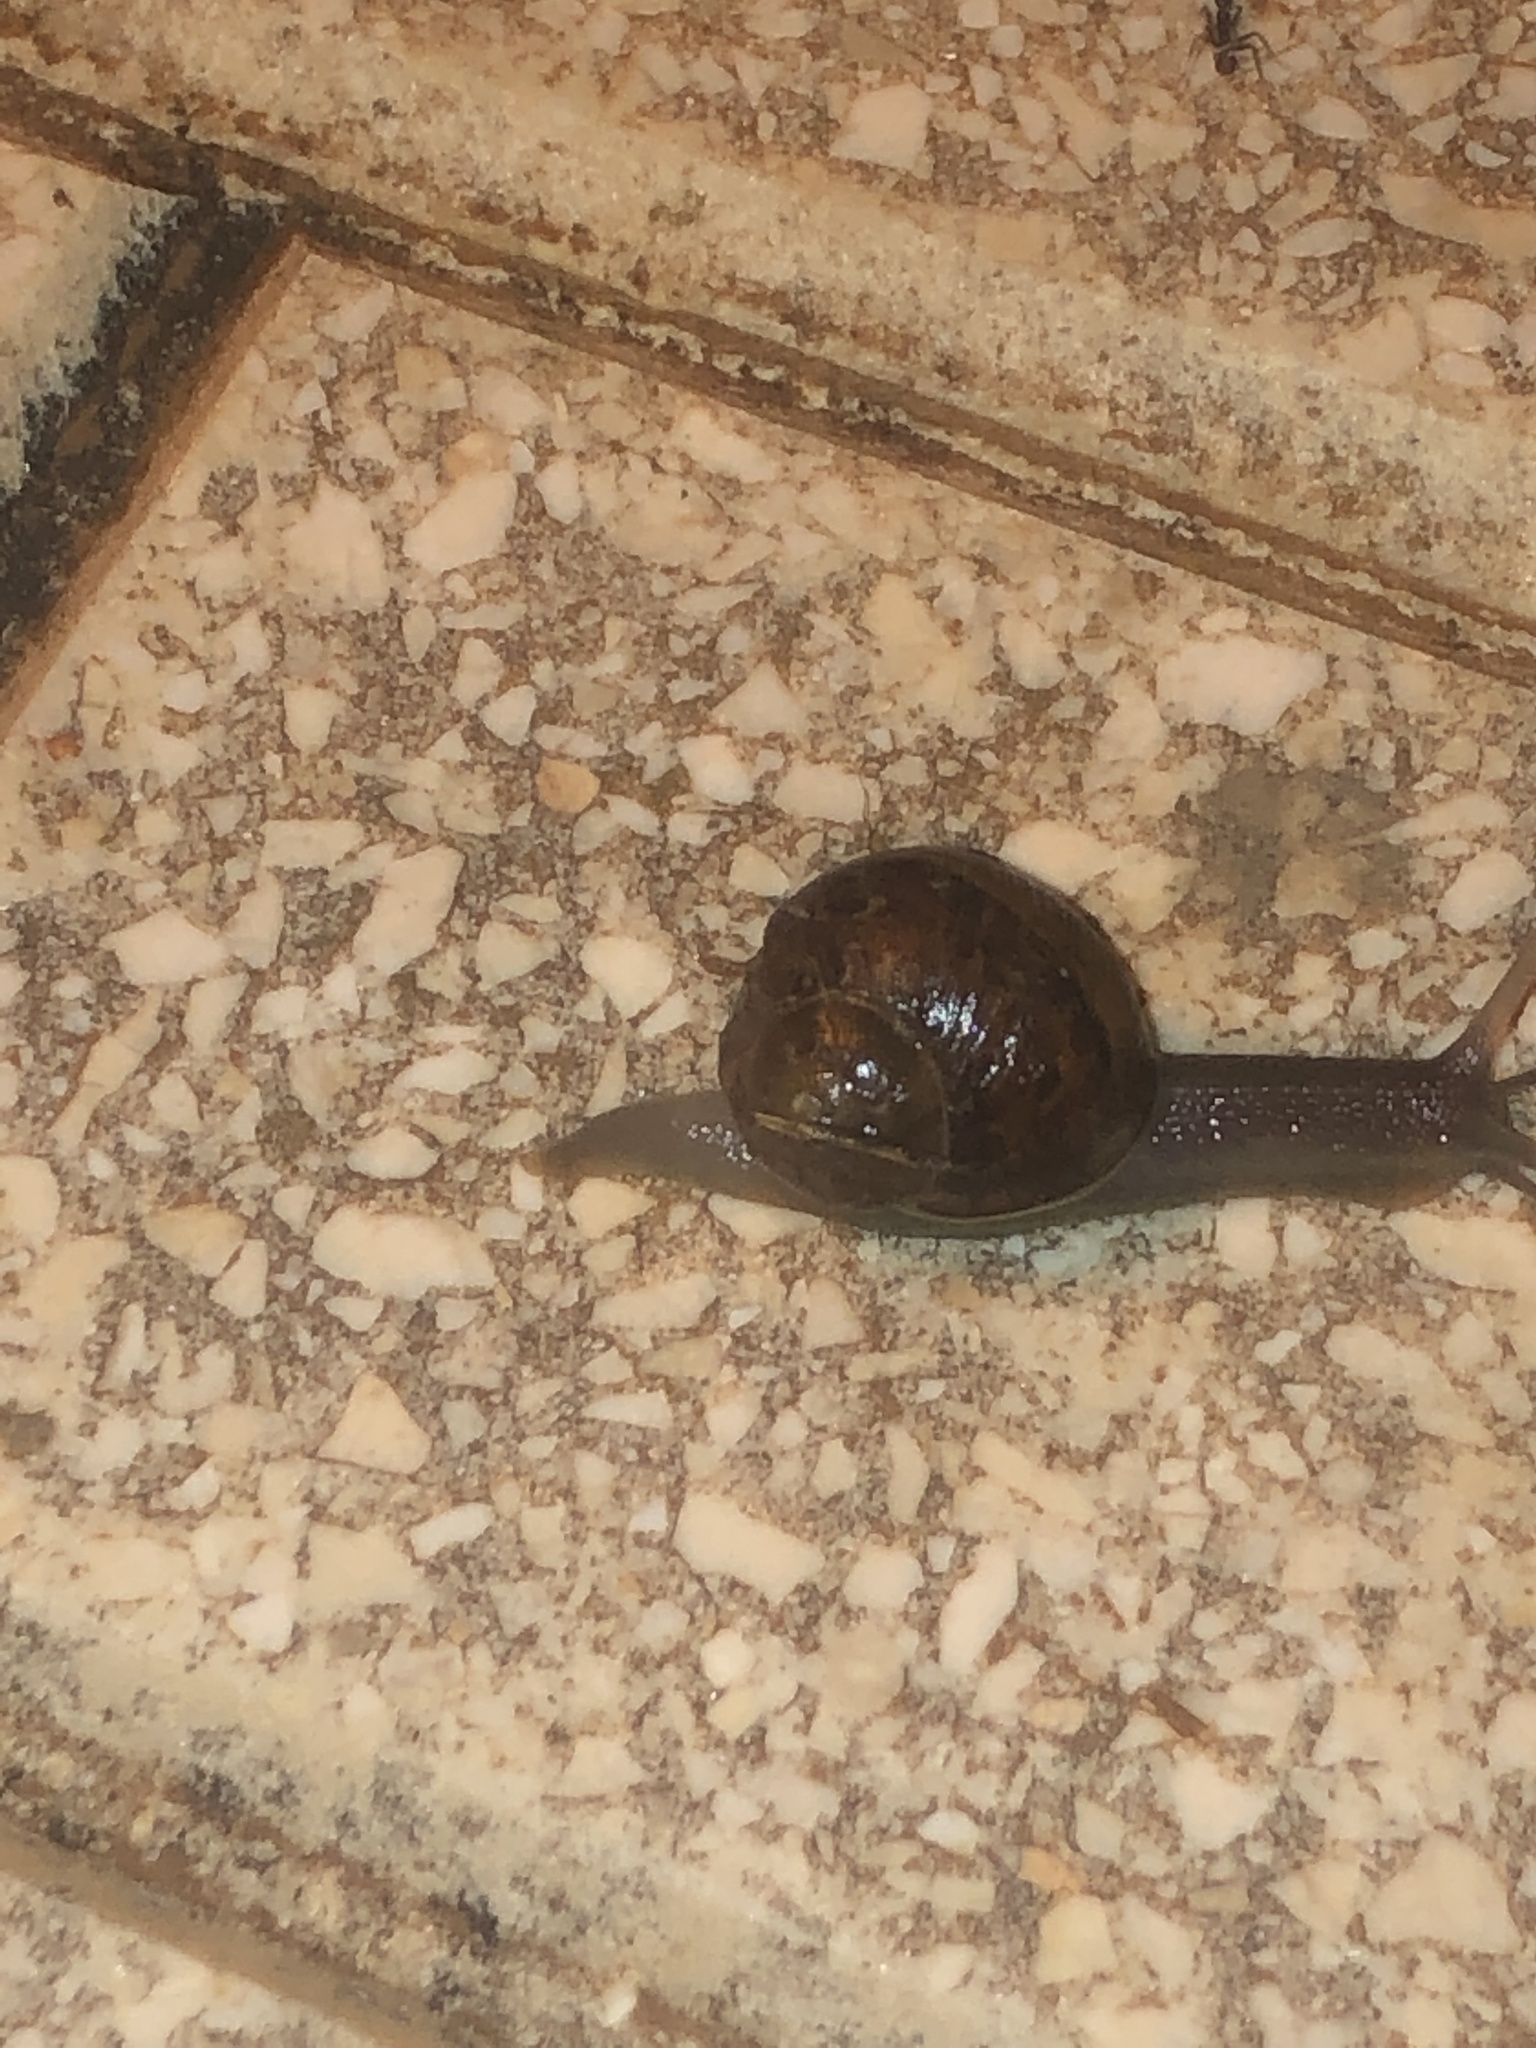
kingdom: Animalia
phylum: Mollusca
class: Gastropoda
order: Stylommatophora
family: Helicidae
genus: Cornu
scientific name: Cornu aspersum
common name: Brown garden snail
